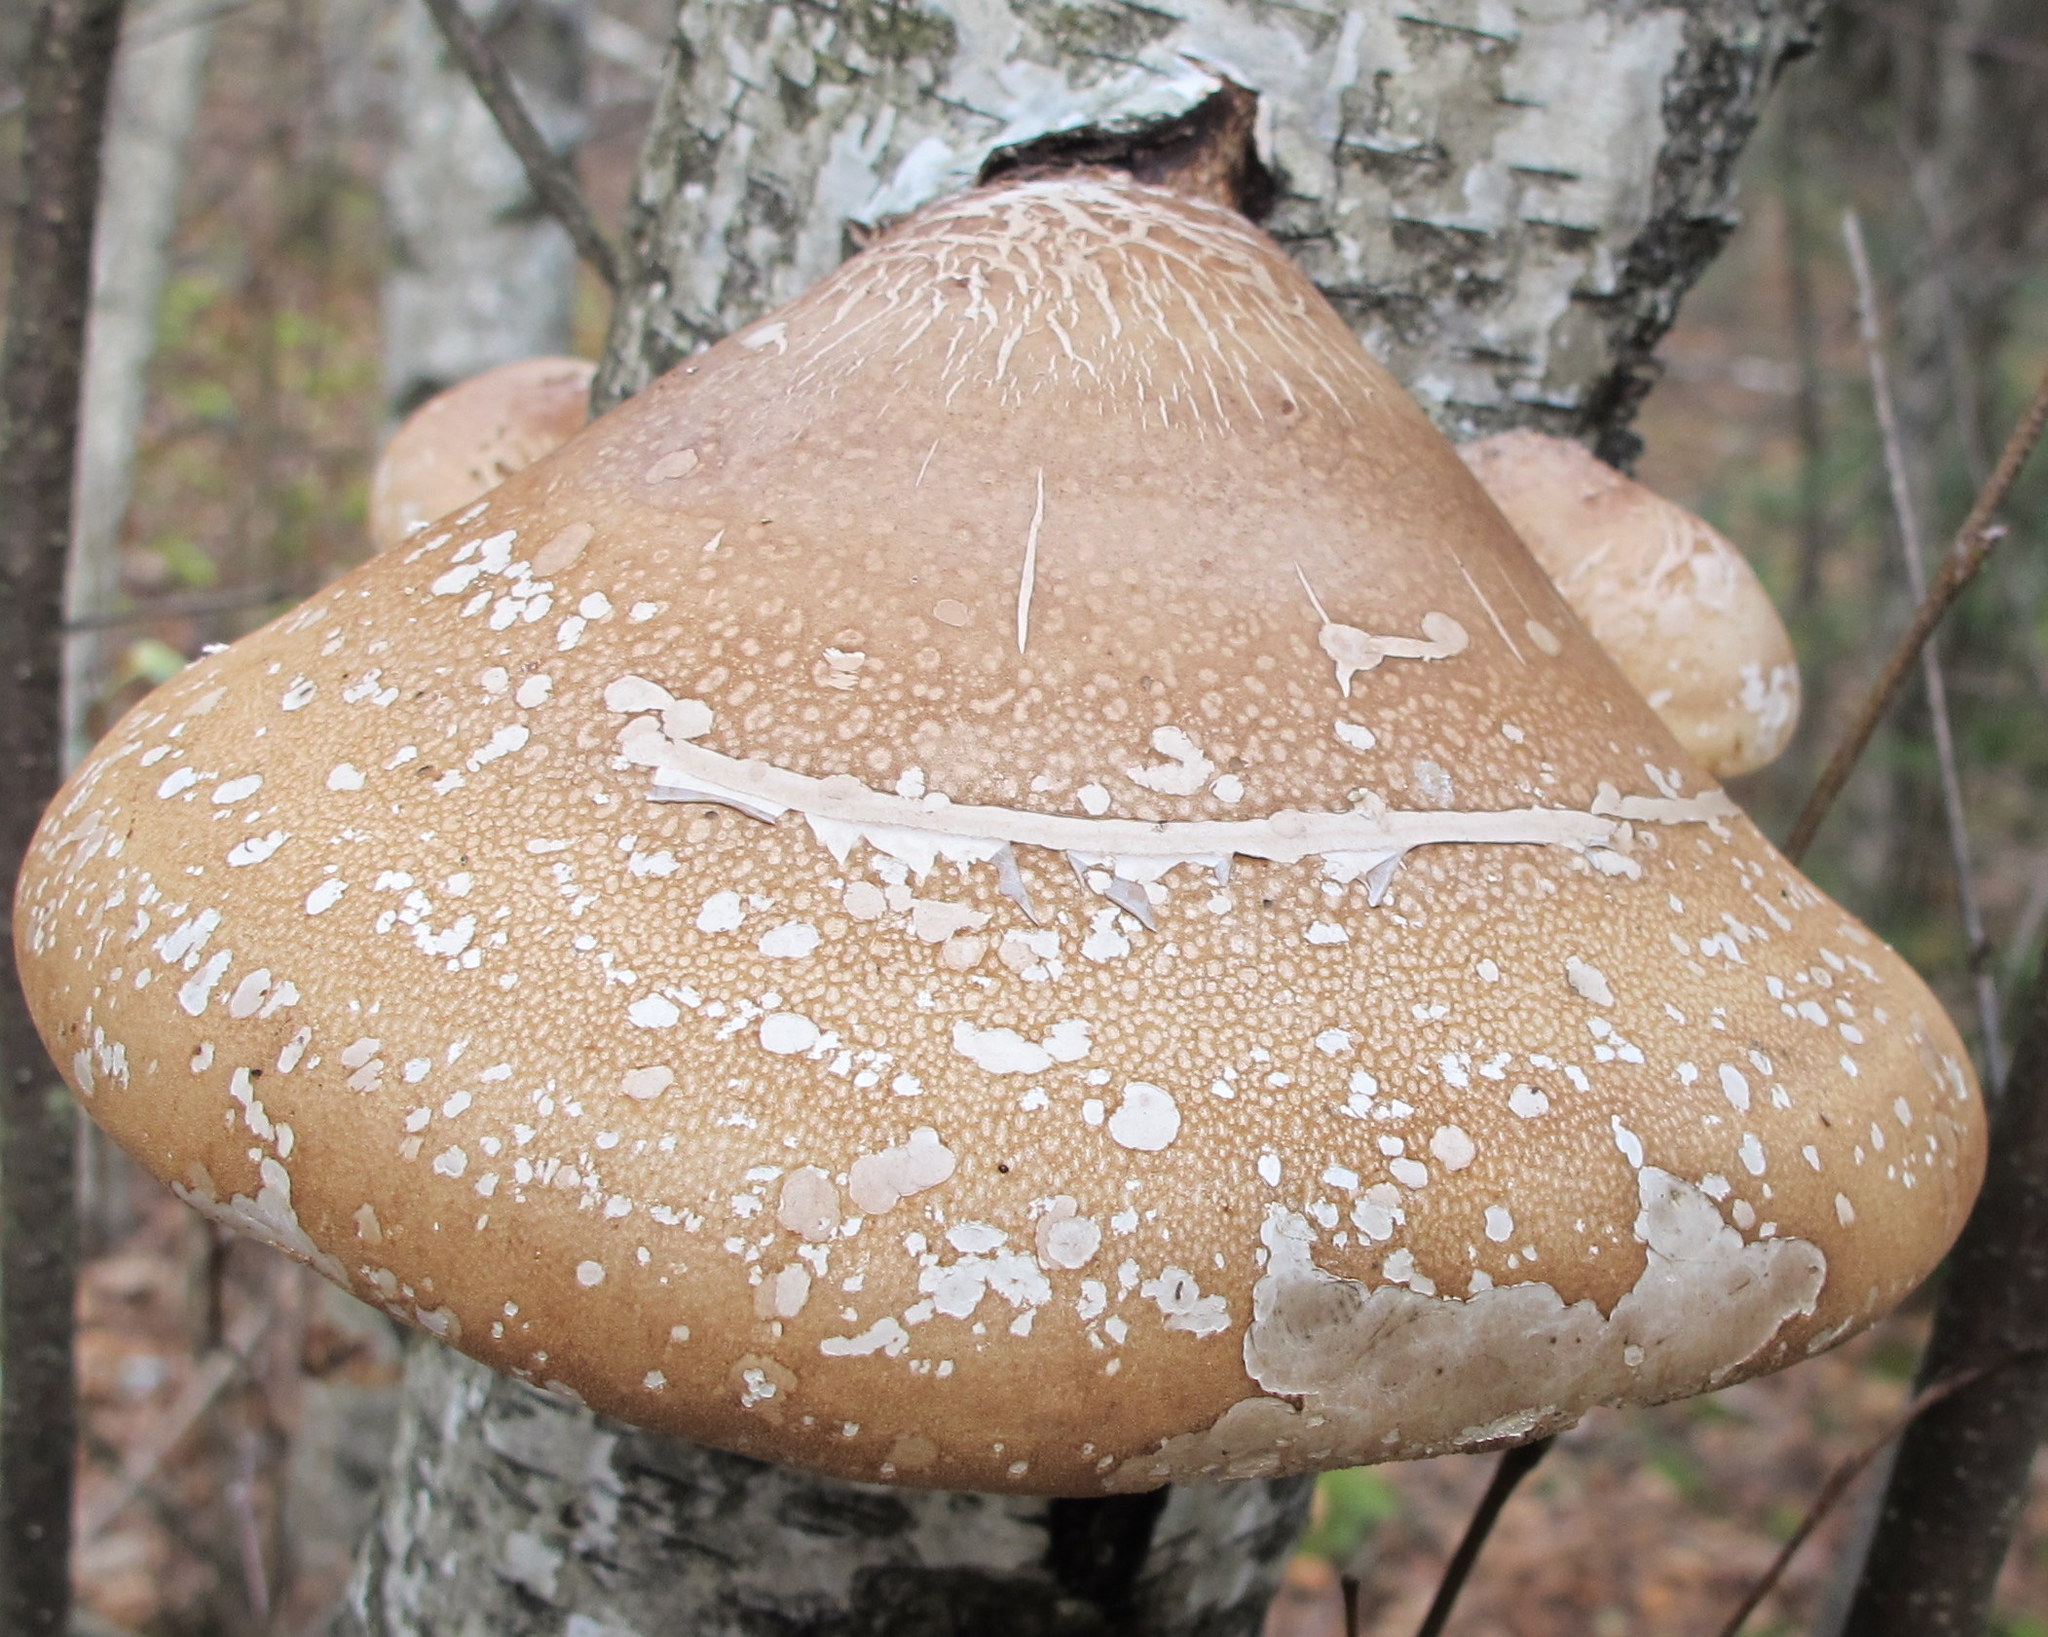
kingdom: Fungi
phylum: Basidiomycota
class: Agaricomycetes
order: Polyporales
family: Fomitopsidaceae
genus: Fomitopsis
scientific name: Fomitopsis betulina
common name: Birch polypore
